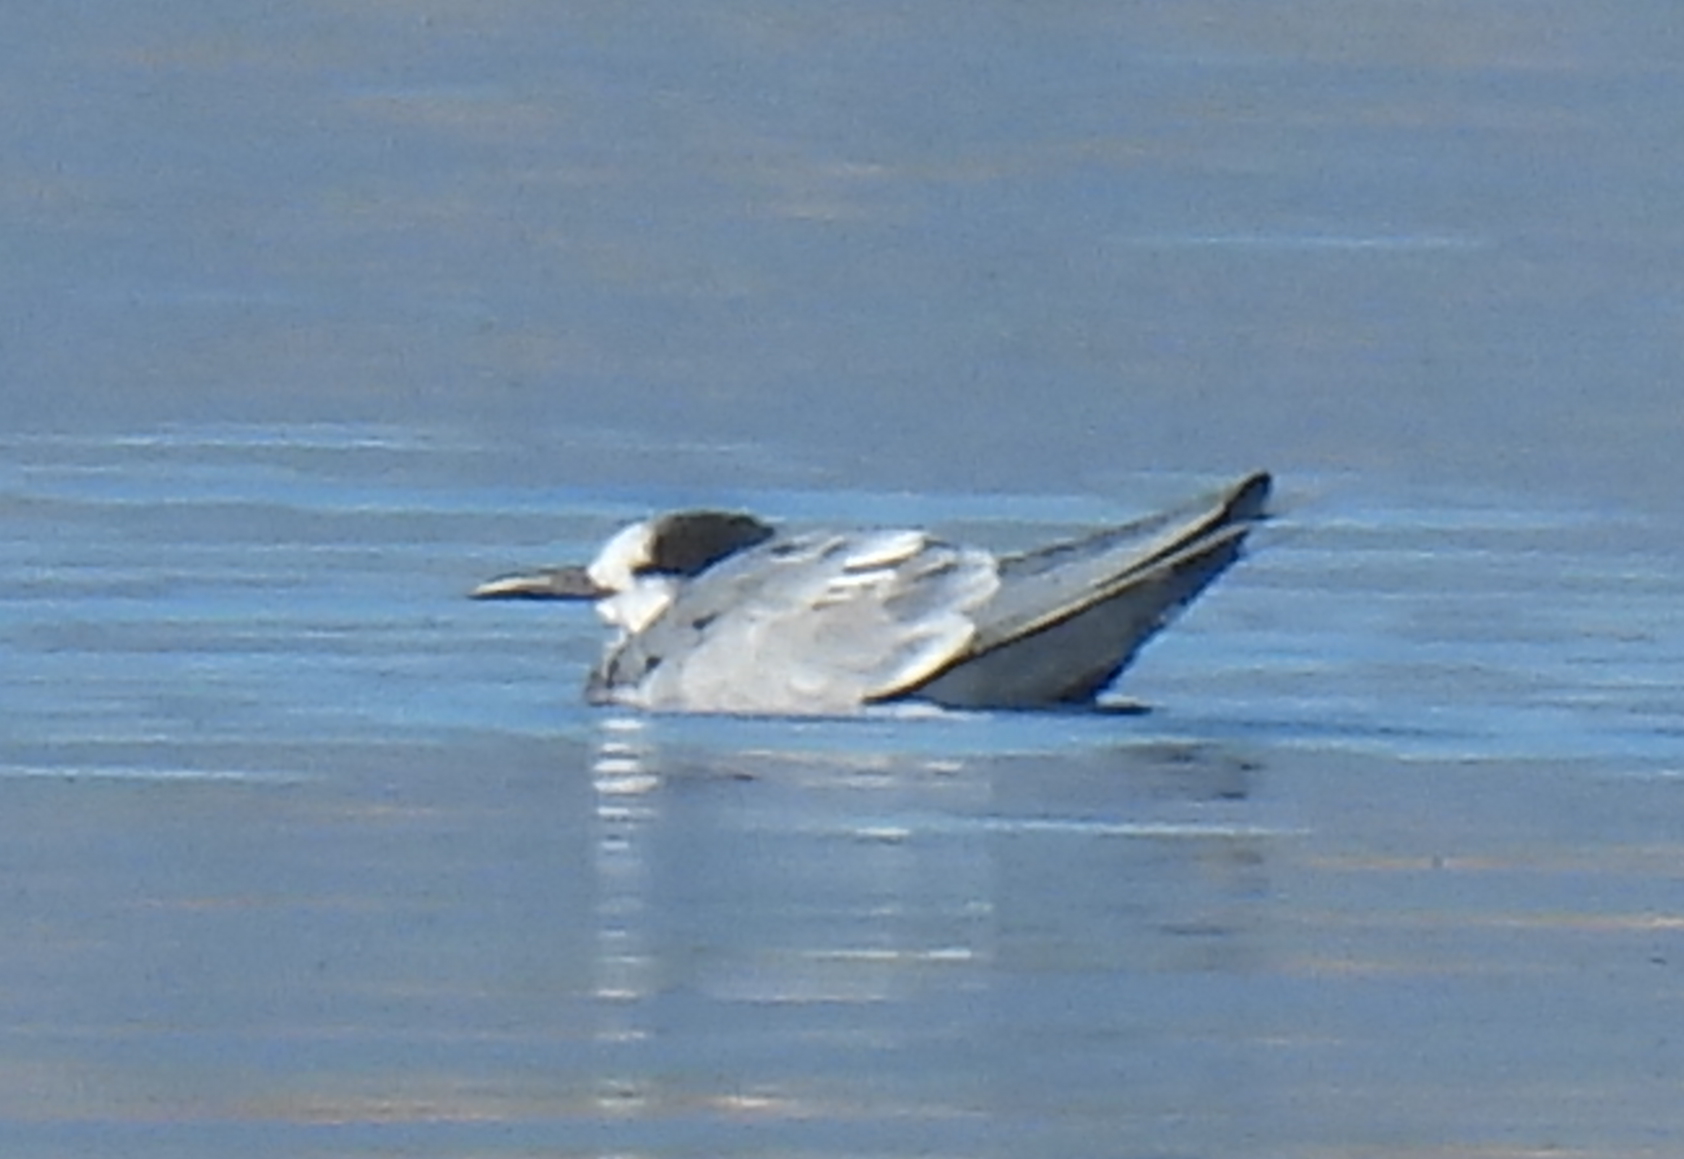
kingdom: Animalia
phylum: Chordata
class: Aves
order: Charadriiformes
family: Laridae
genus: Sterna
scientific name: Sterna hirundo
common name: Common tern
